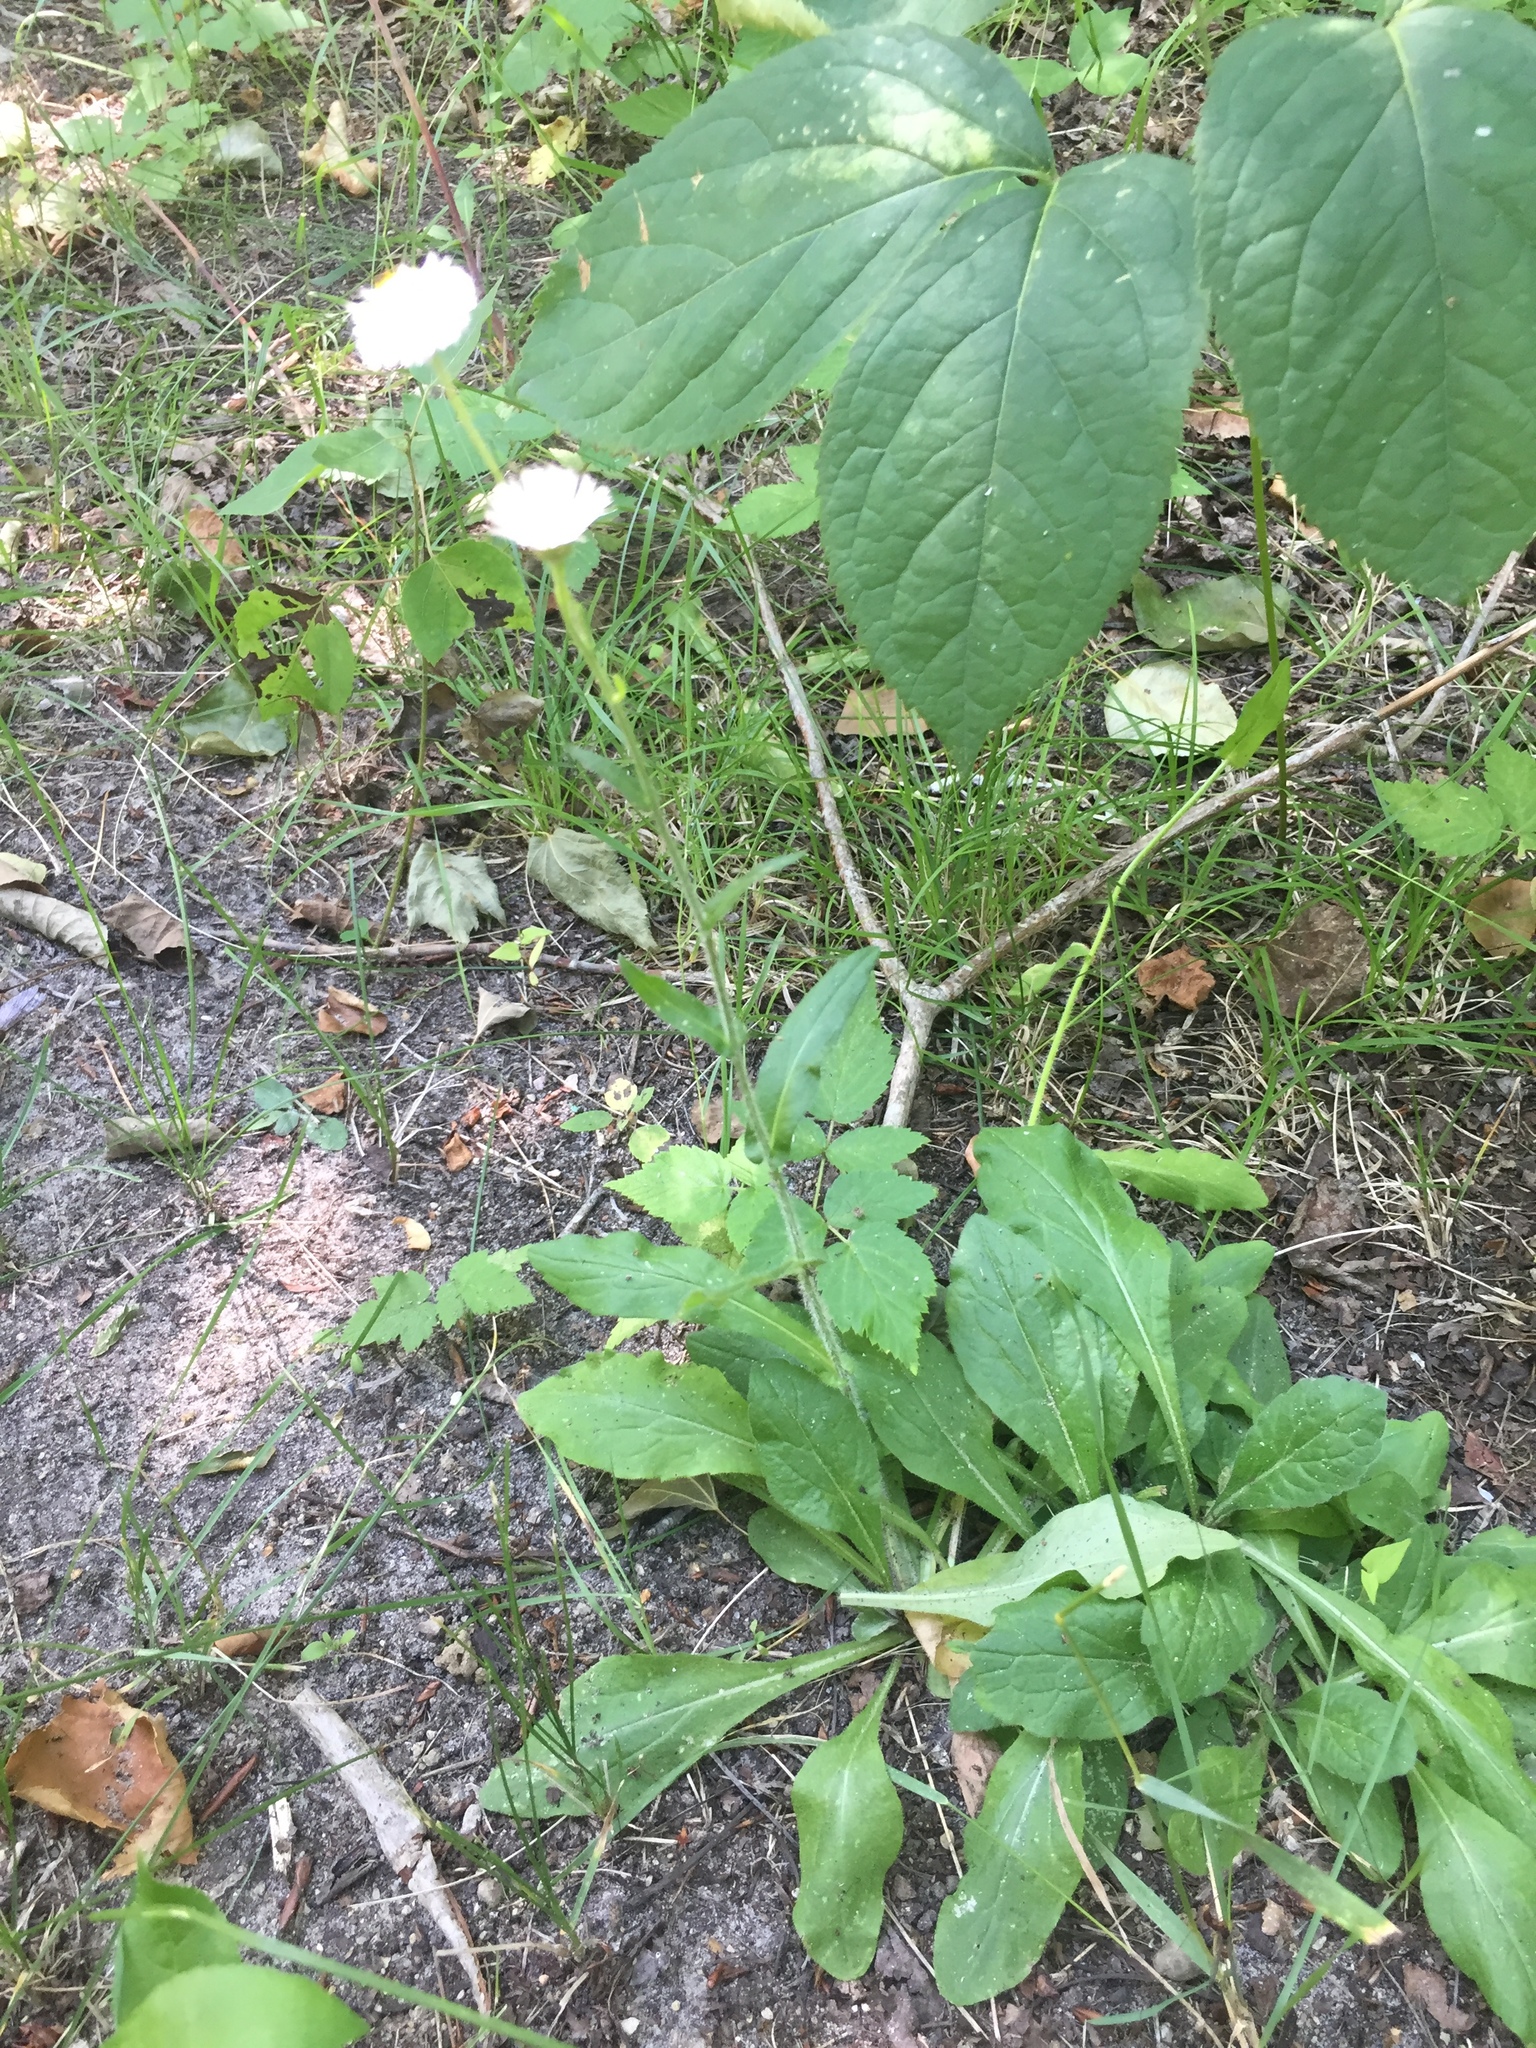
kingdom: Plantae
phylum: Tracheophyta
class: Magnoliopsida
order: Asterales
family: Asteraceae
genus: Erigeron
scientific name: Erigeron philadelphicus
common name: Robin's-plantain
